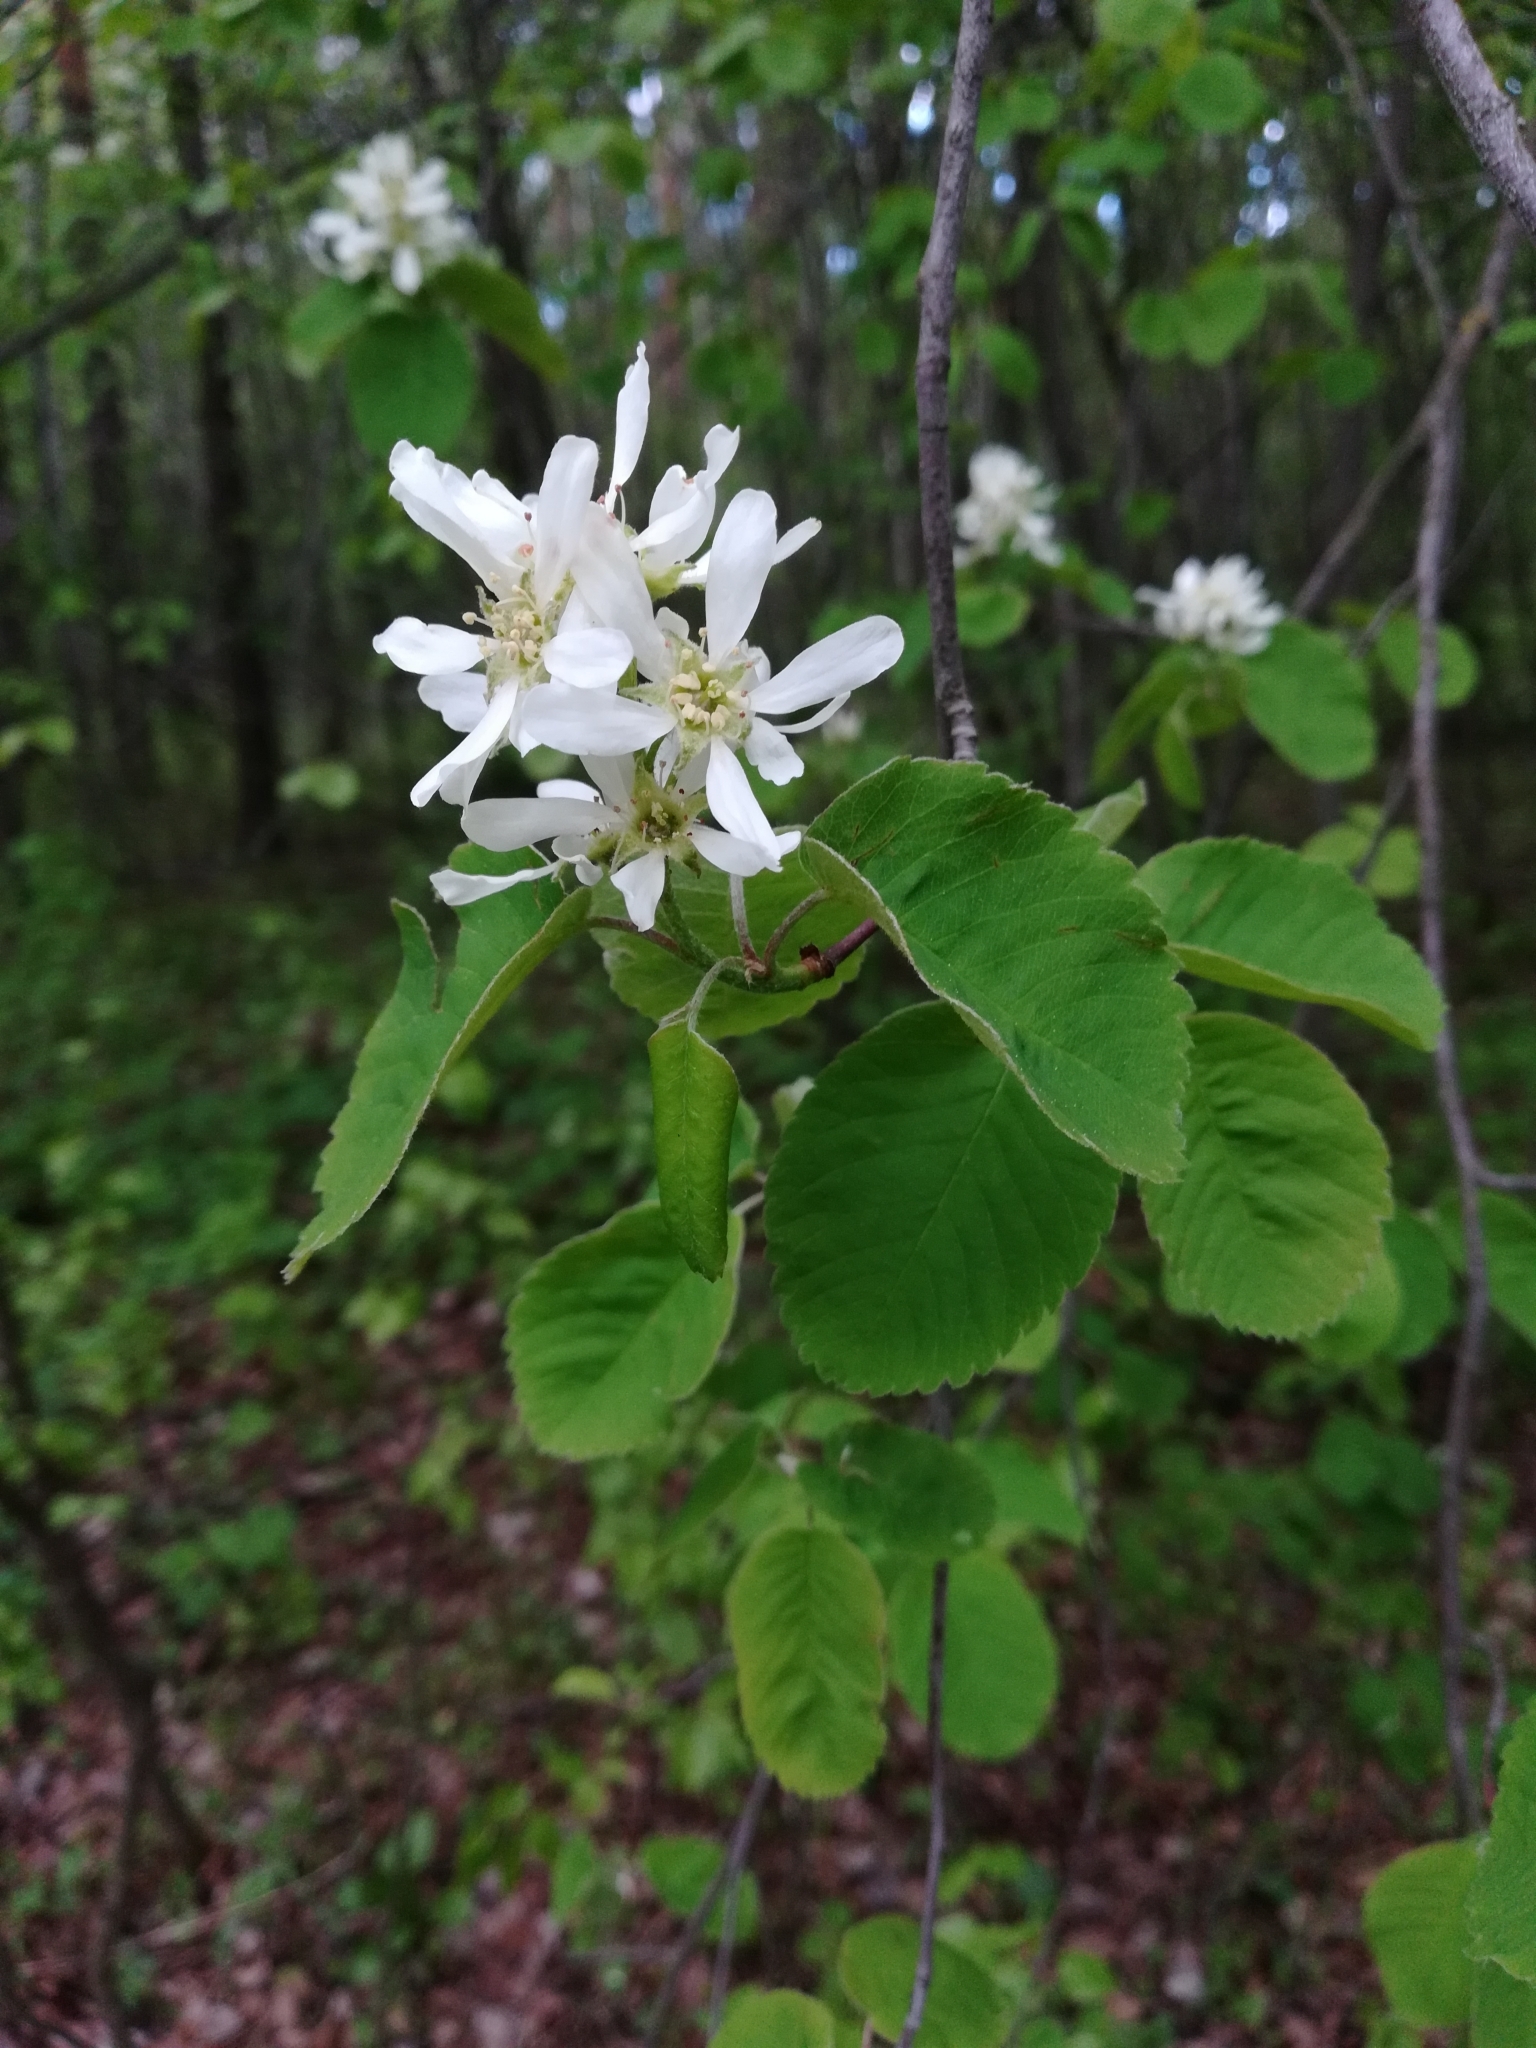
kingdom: Plantae
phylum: Tracheophyta
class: Magnoliopsida
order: Rosales
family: Rosaceae
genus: Amelanchier
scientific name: Amelanchier alnifolia
